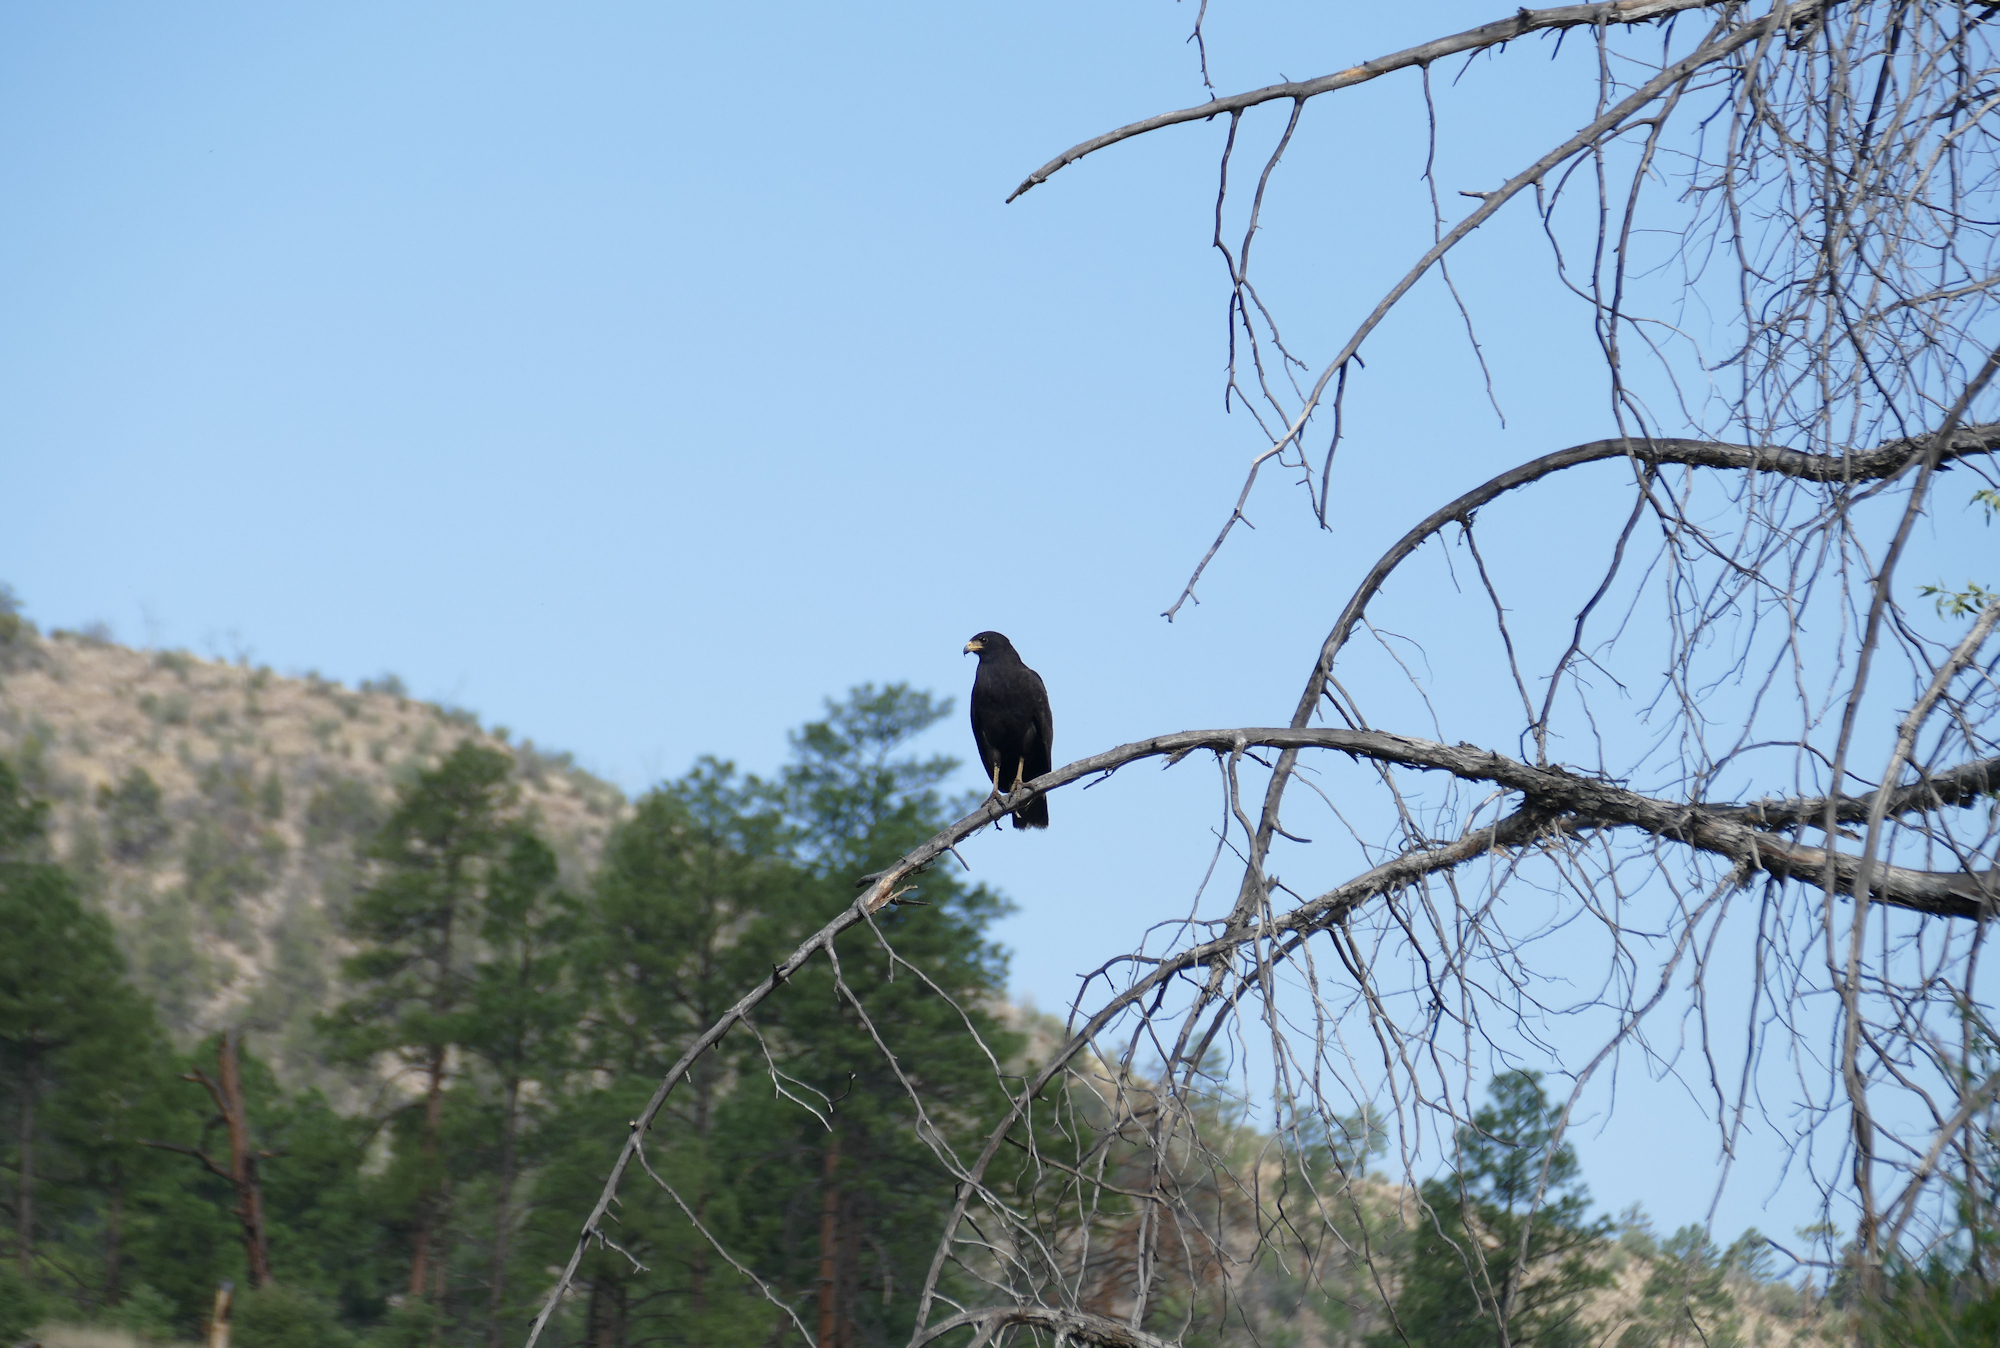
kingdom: Animalia
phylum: Chordata
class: Aves
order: Accipitriformes
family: Accipitridae
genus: Buteogallus
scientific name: Buteogallus anthracinus
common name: Common black hawk
